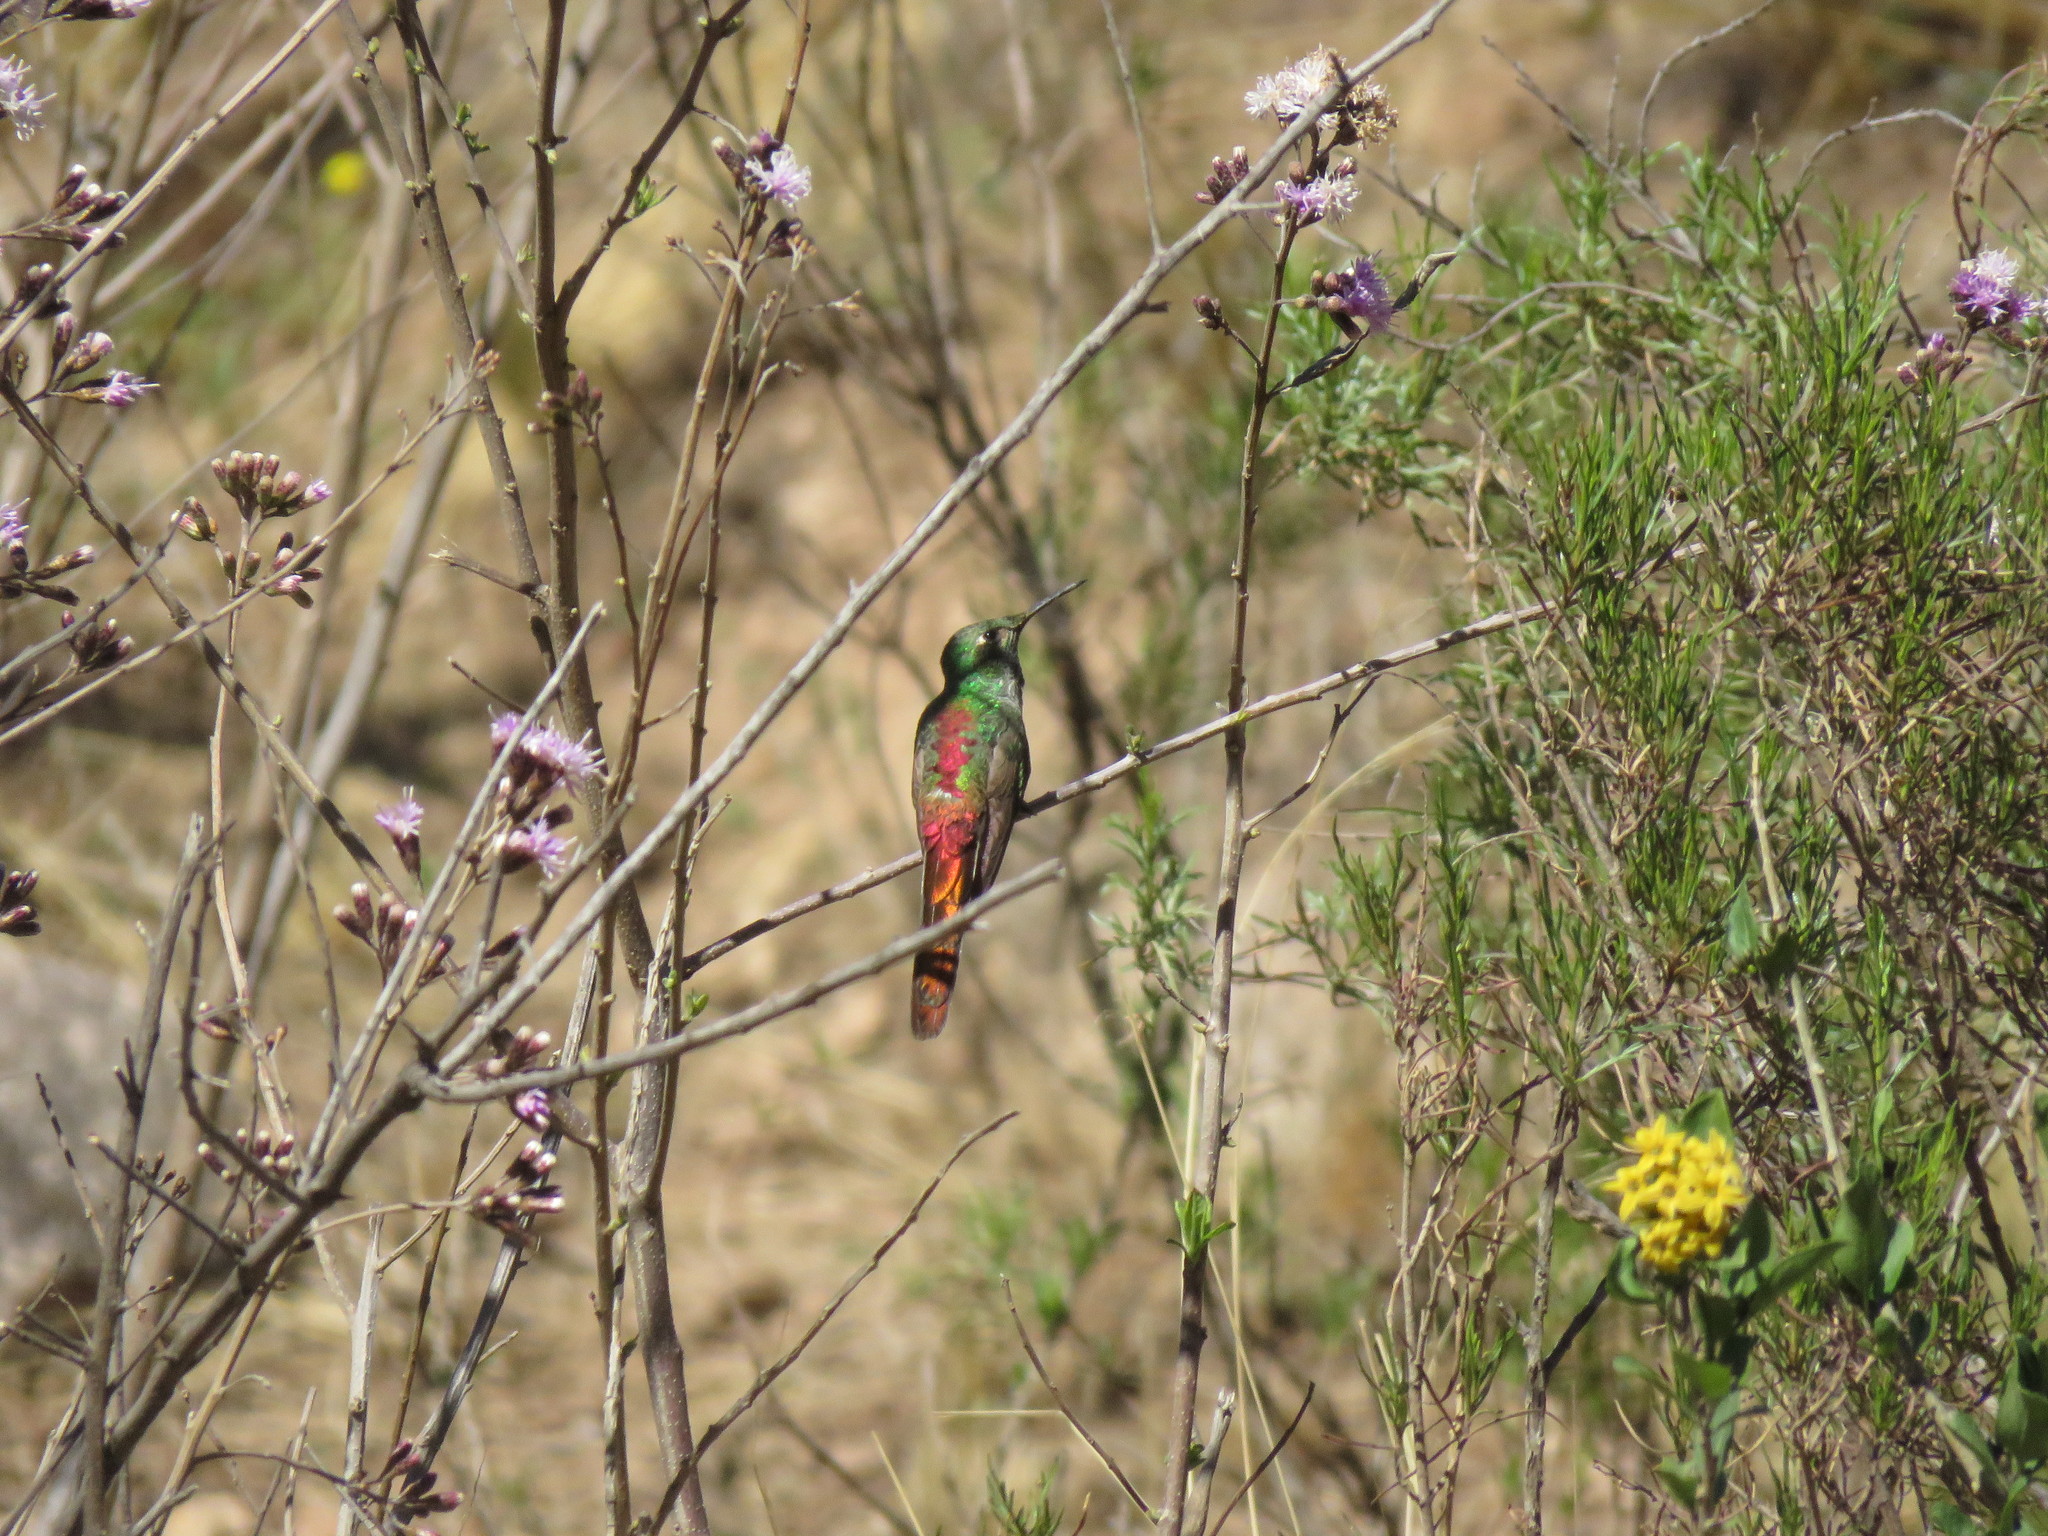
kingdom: Animalia
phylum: Chordata
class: Aves
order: Apodiformes
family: Trochilidae
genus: Sappho
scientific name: Sappho sparganurus
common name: Red-tailed comet
